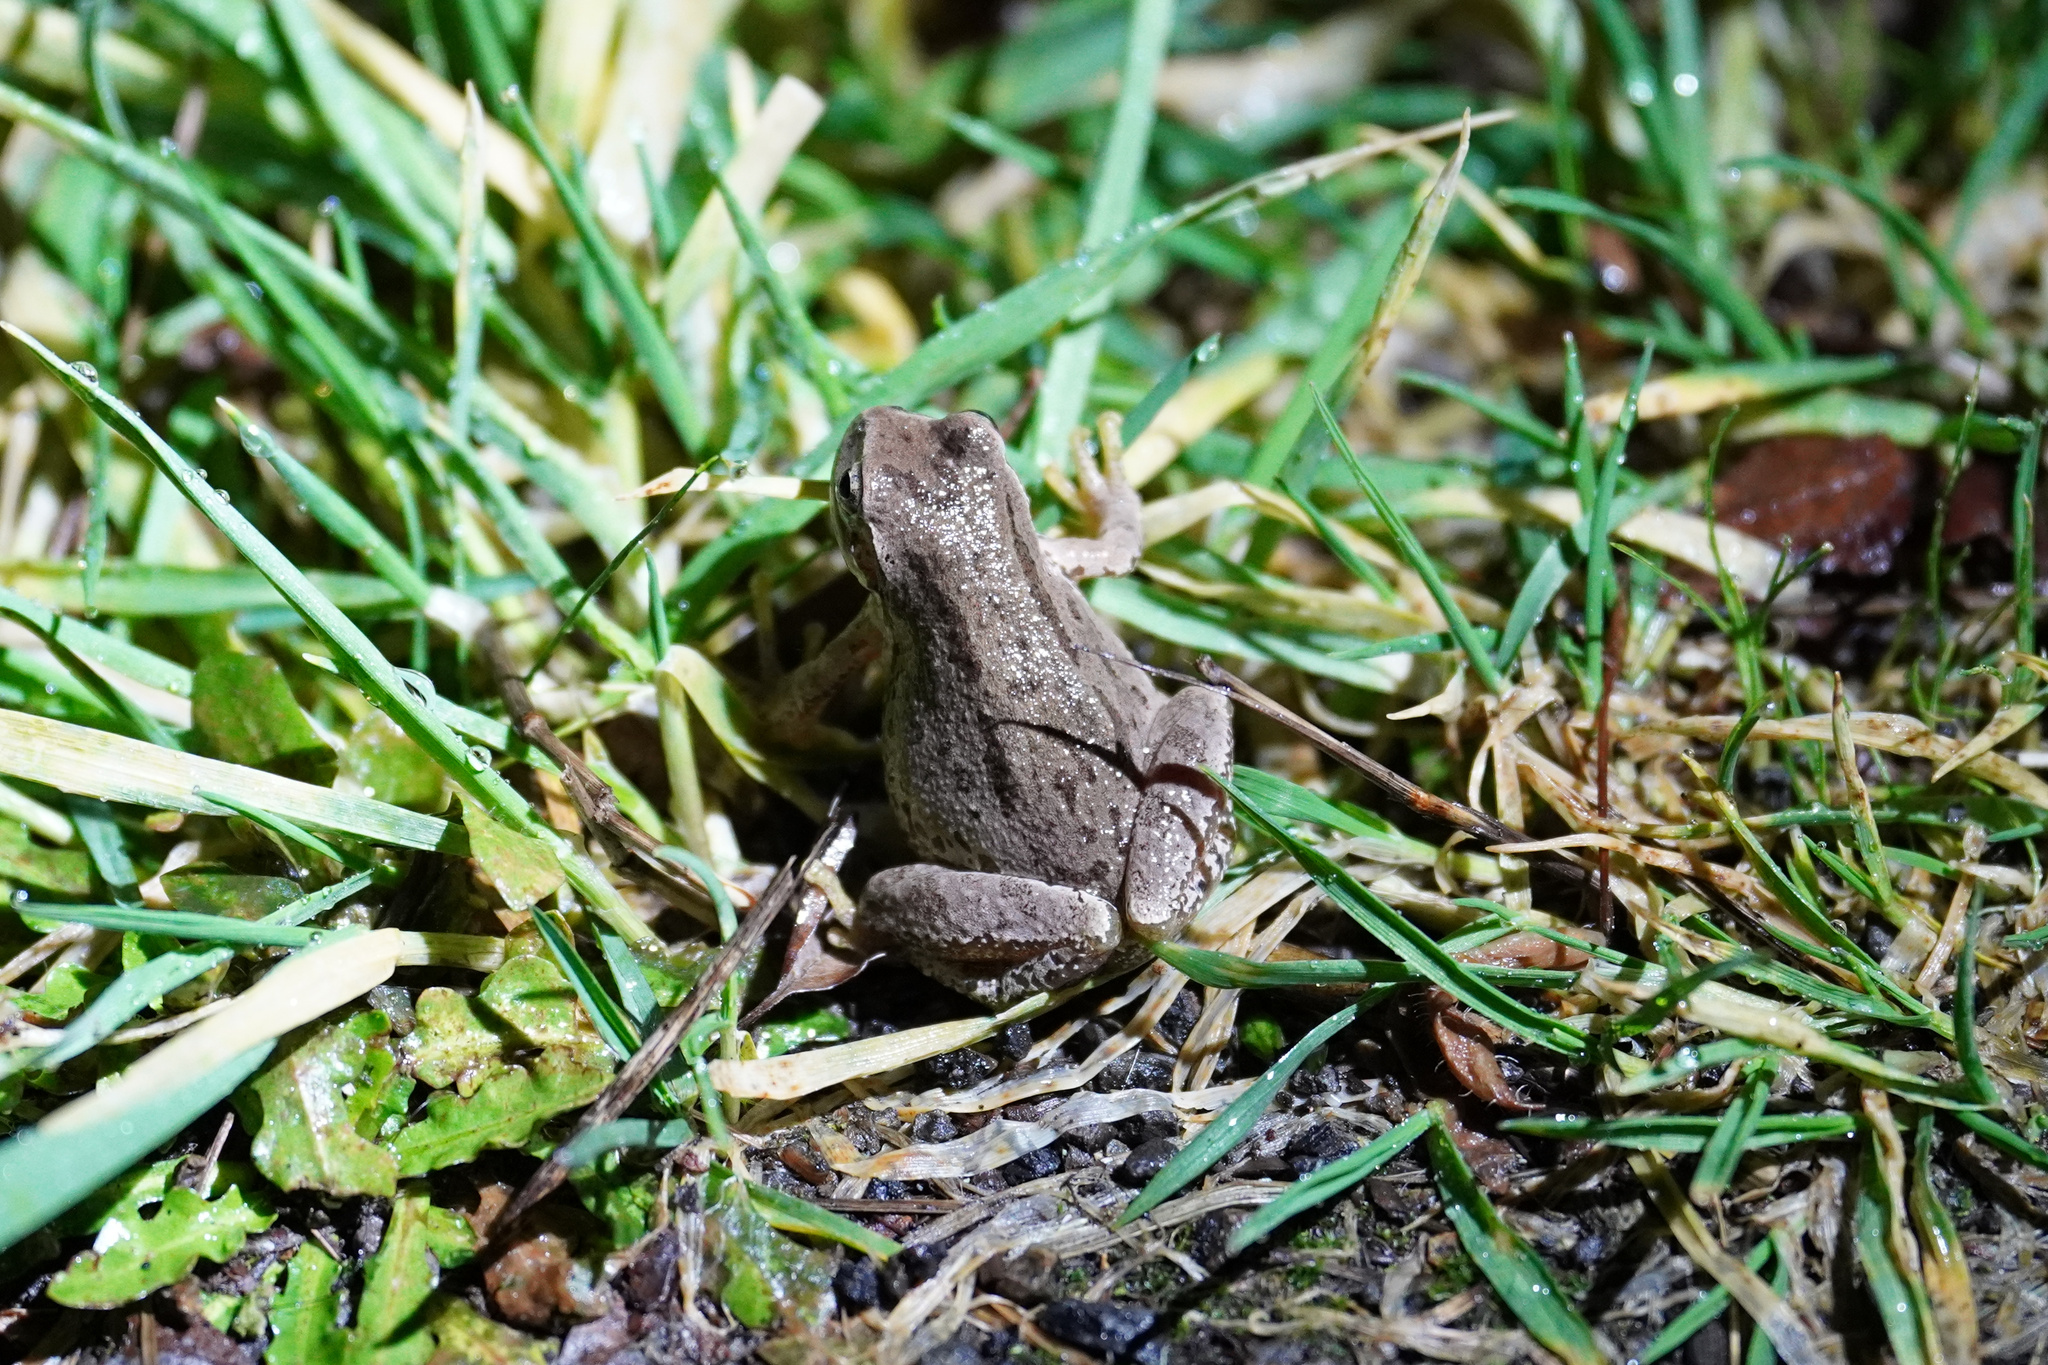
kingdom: Animalia
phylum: Chordata
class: Amphibia
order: Anura
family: Hylidae
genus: Pseudacris
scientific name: Pseudacris regilla
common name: Pacific chorus frog
